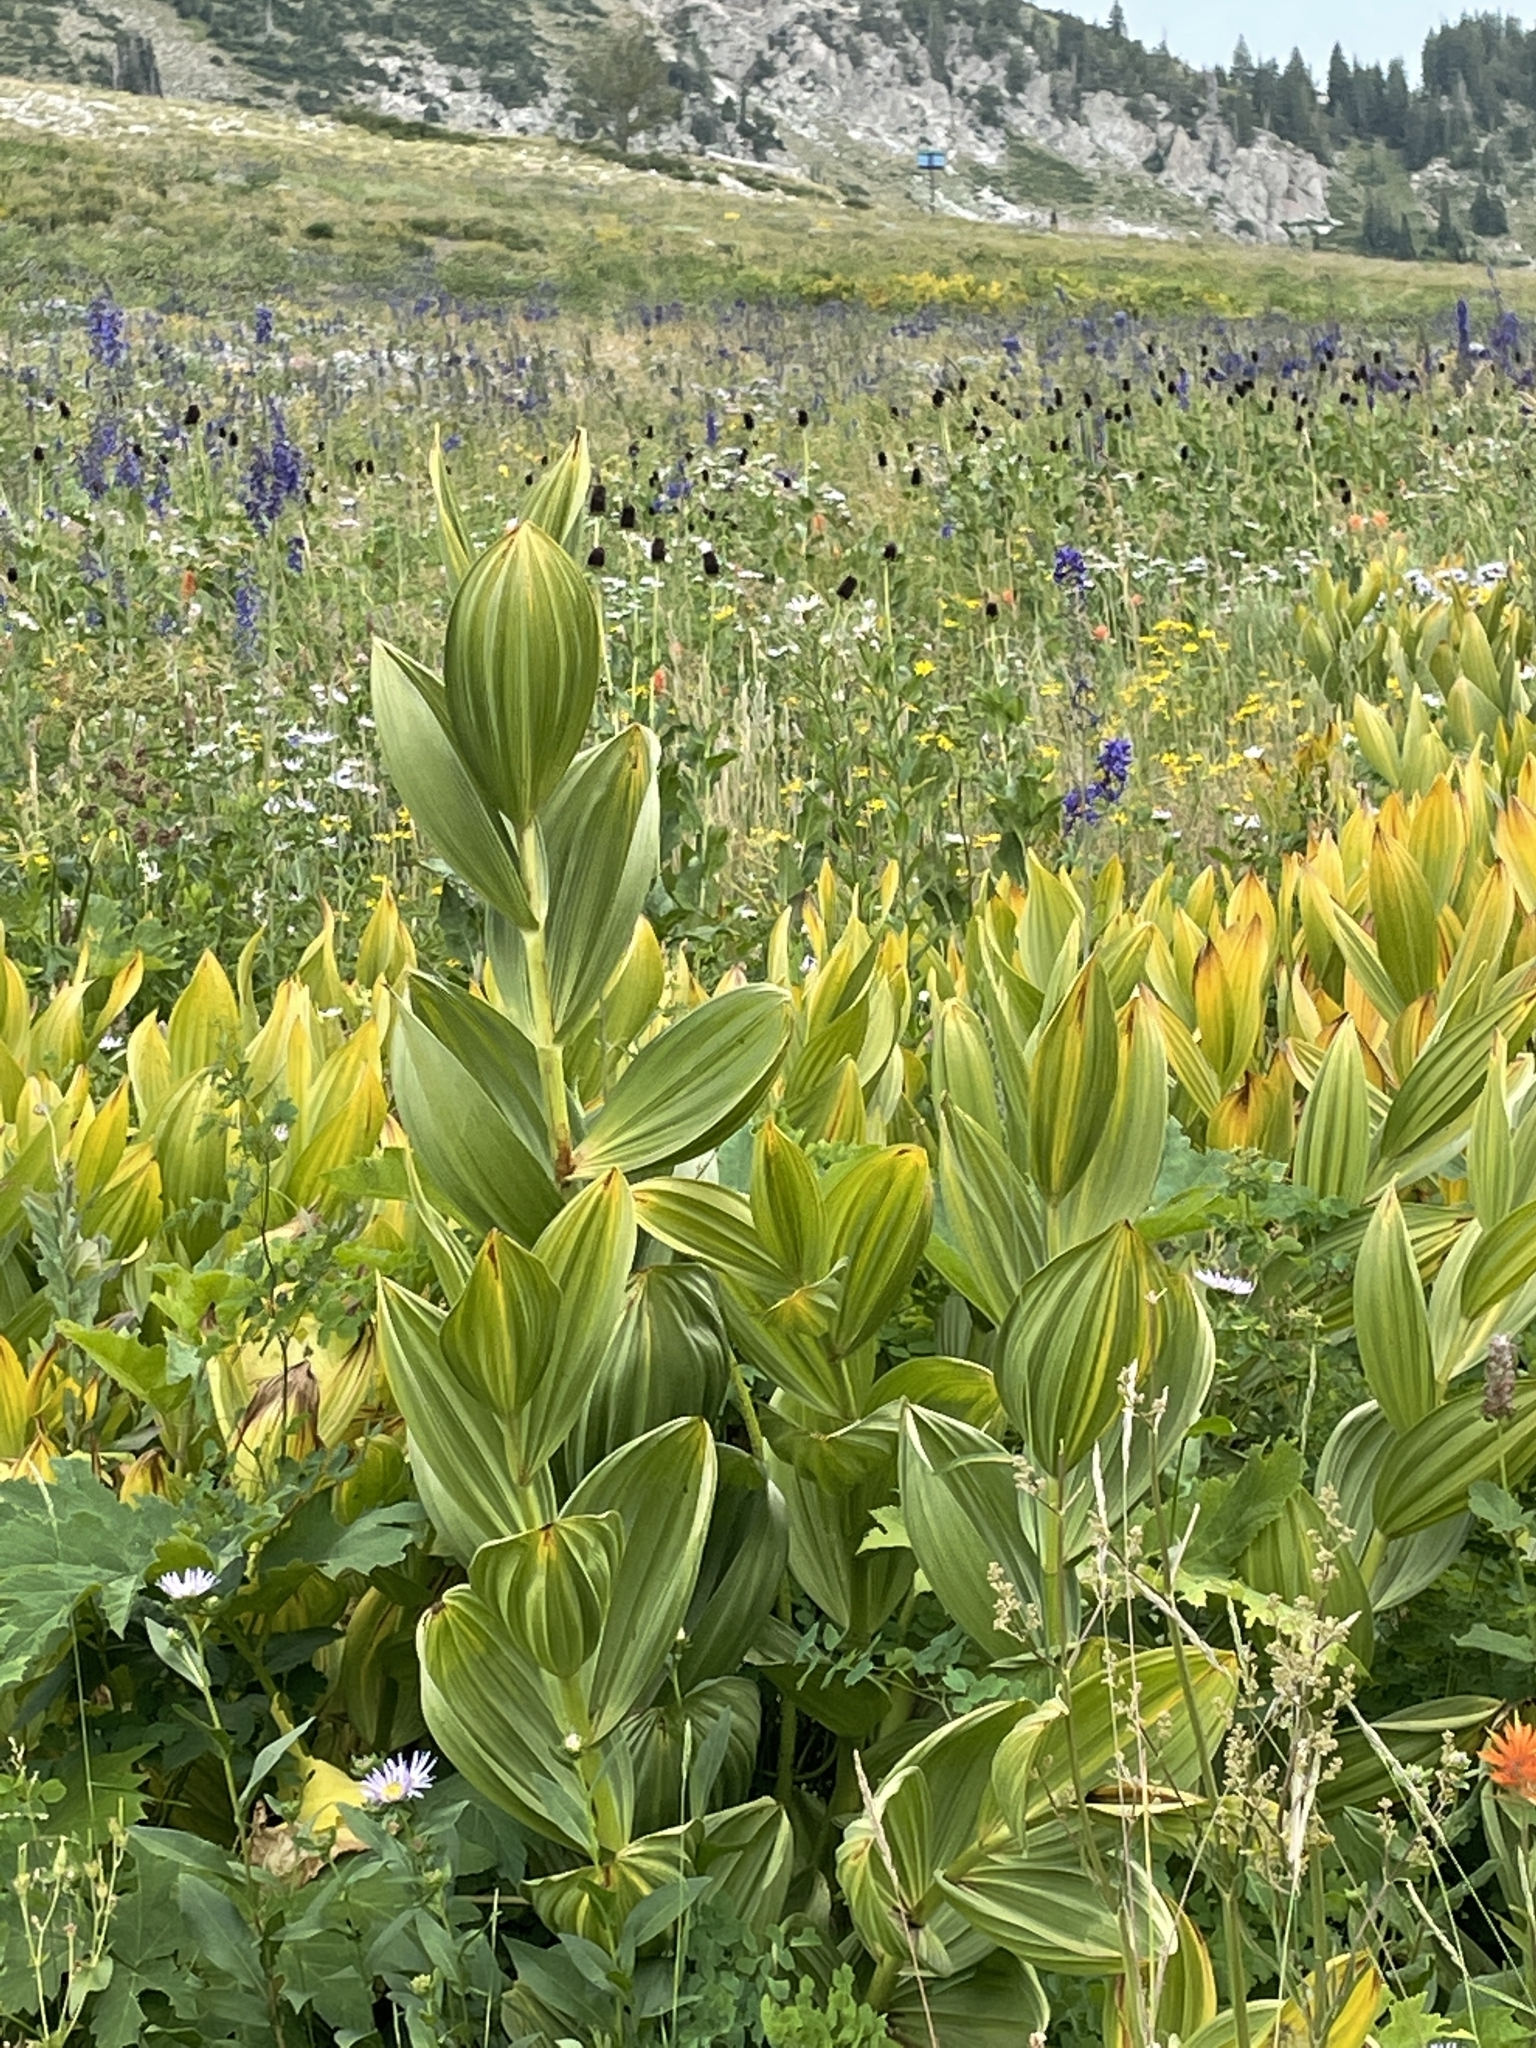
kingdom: Plantae
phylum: Tracheophyta
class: Liliopsida
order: Liliales
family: Melanthiaceae
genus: Veratrum
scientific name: Veratrum californicum
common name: California veratrum
